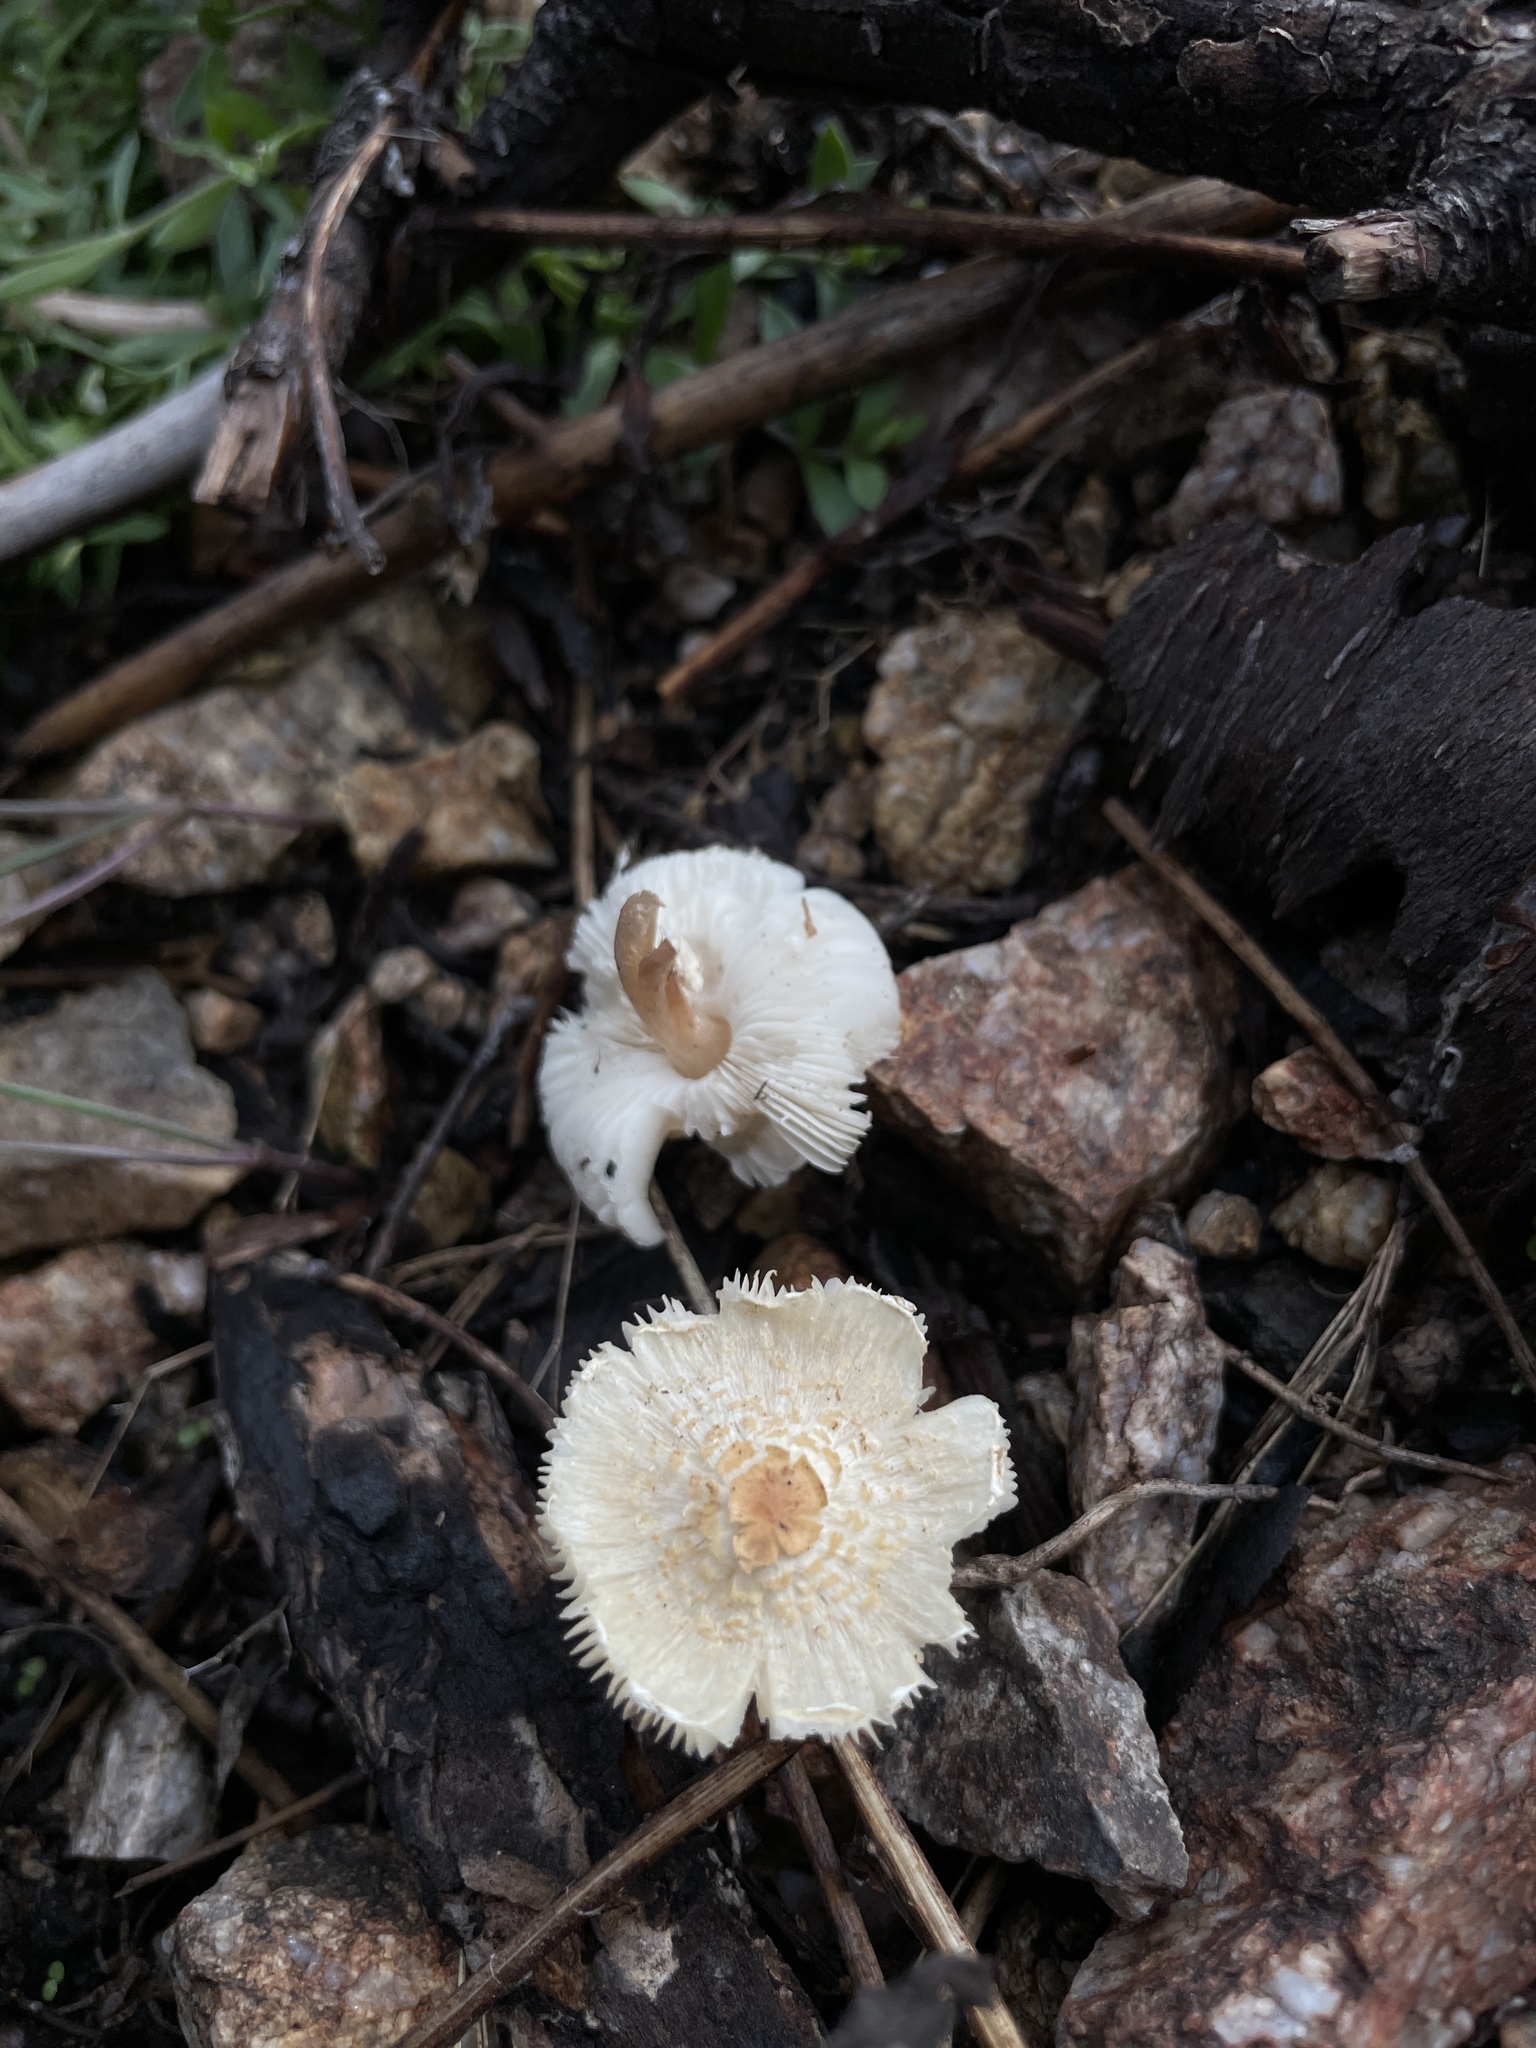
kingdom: Fungi
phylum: Basidiomycota
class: Agaricomycetes
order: Agaricales
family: Agaricaceae
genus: Lepiota
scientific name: Lepiota clypeolaria
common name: Shield dapperling
